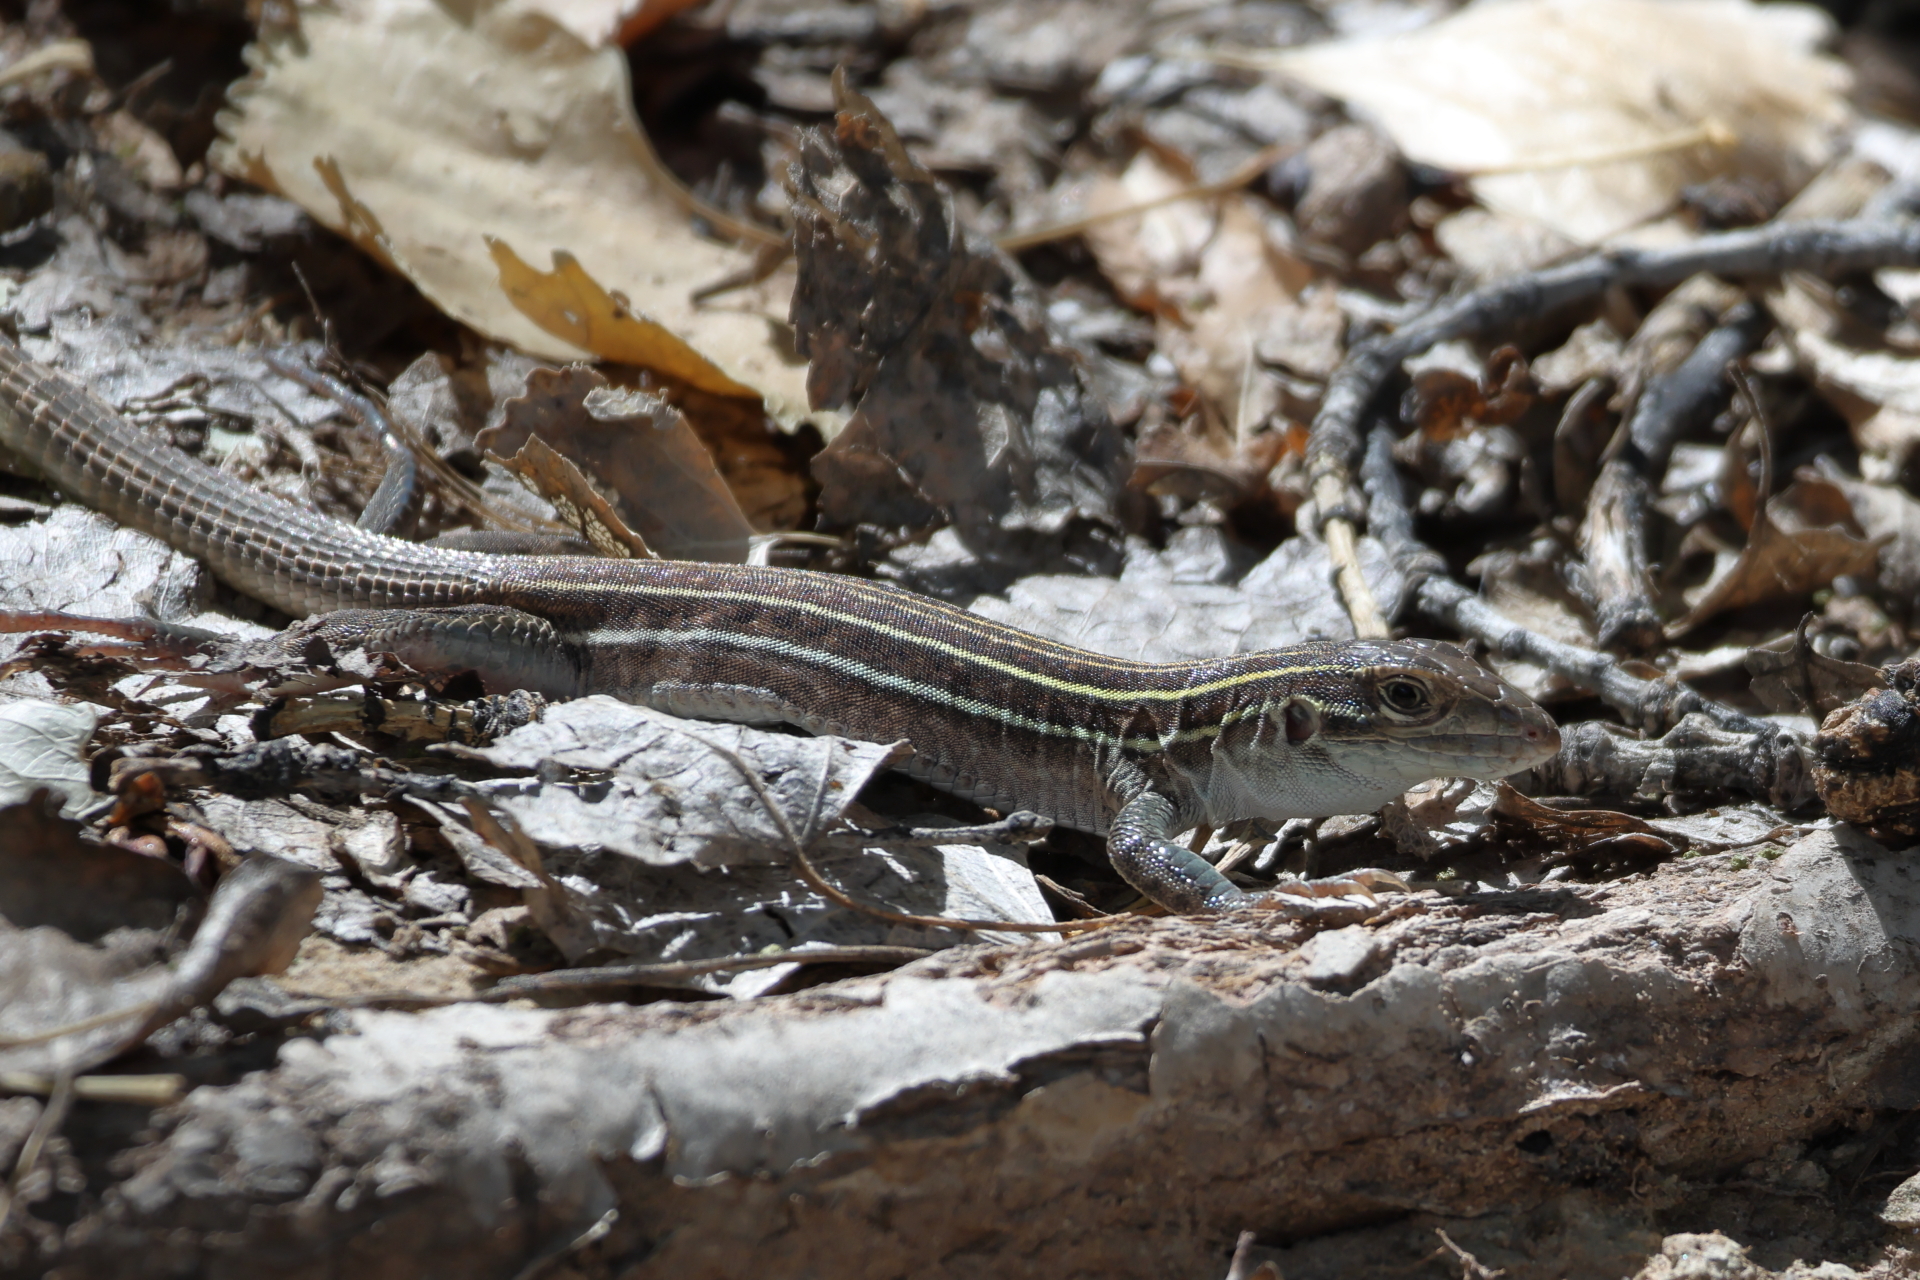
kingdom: Animalia
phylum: Chordata
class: Squamata
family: Teiidae
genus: Aspidoscelis
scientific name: Aspidoscelis sonorae
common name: Sonoran spotted whiptail
